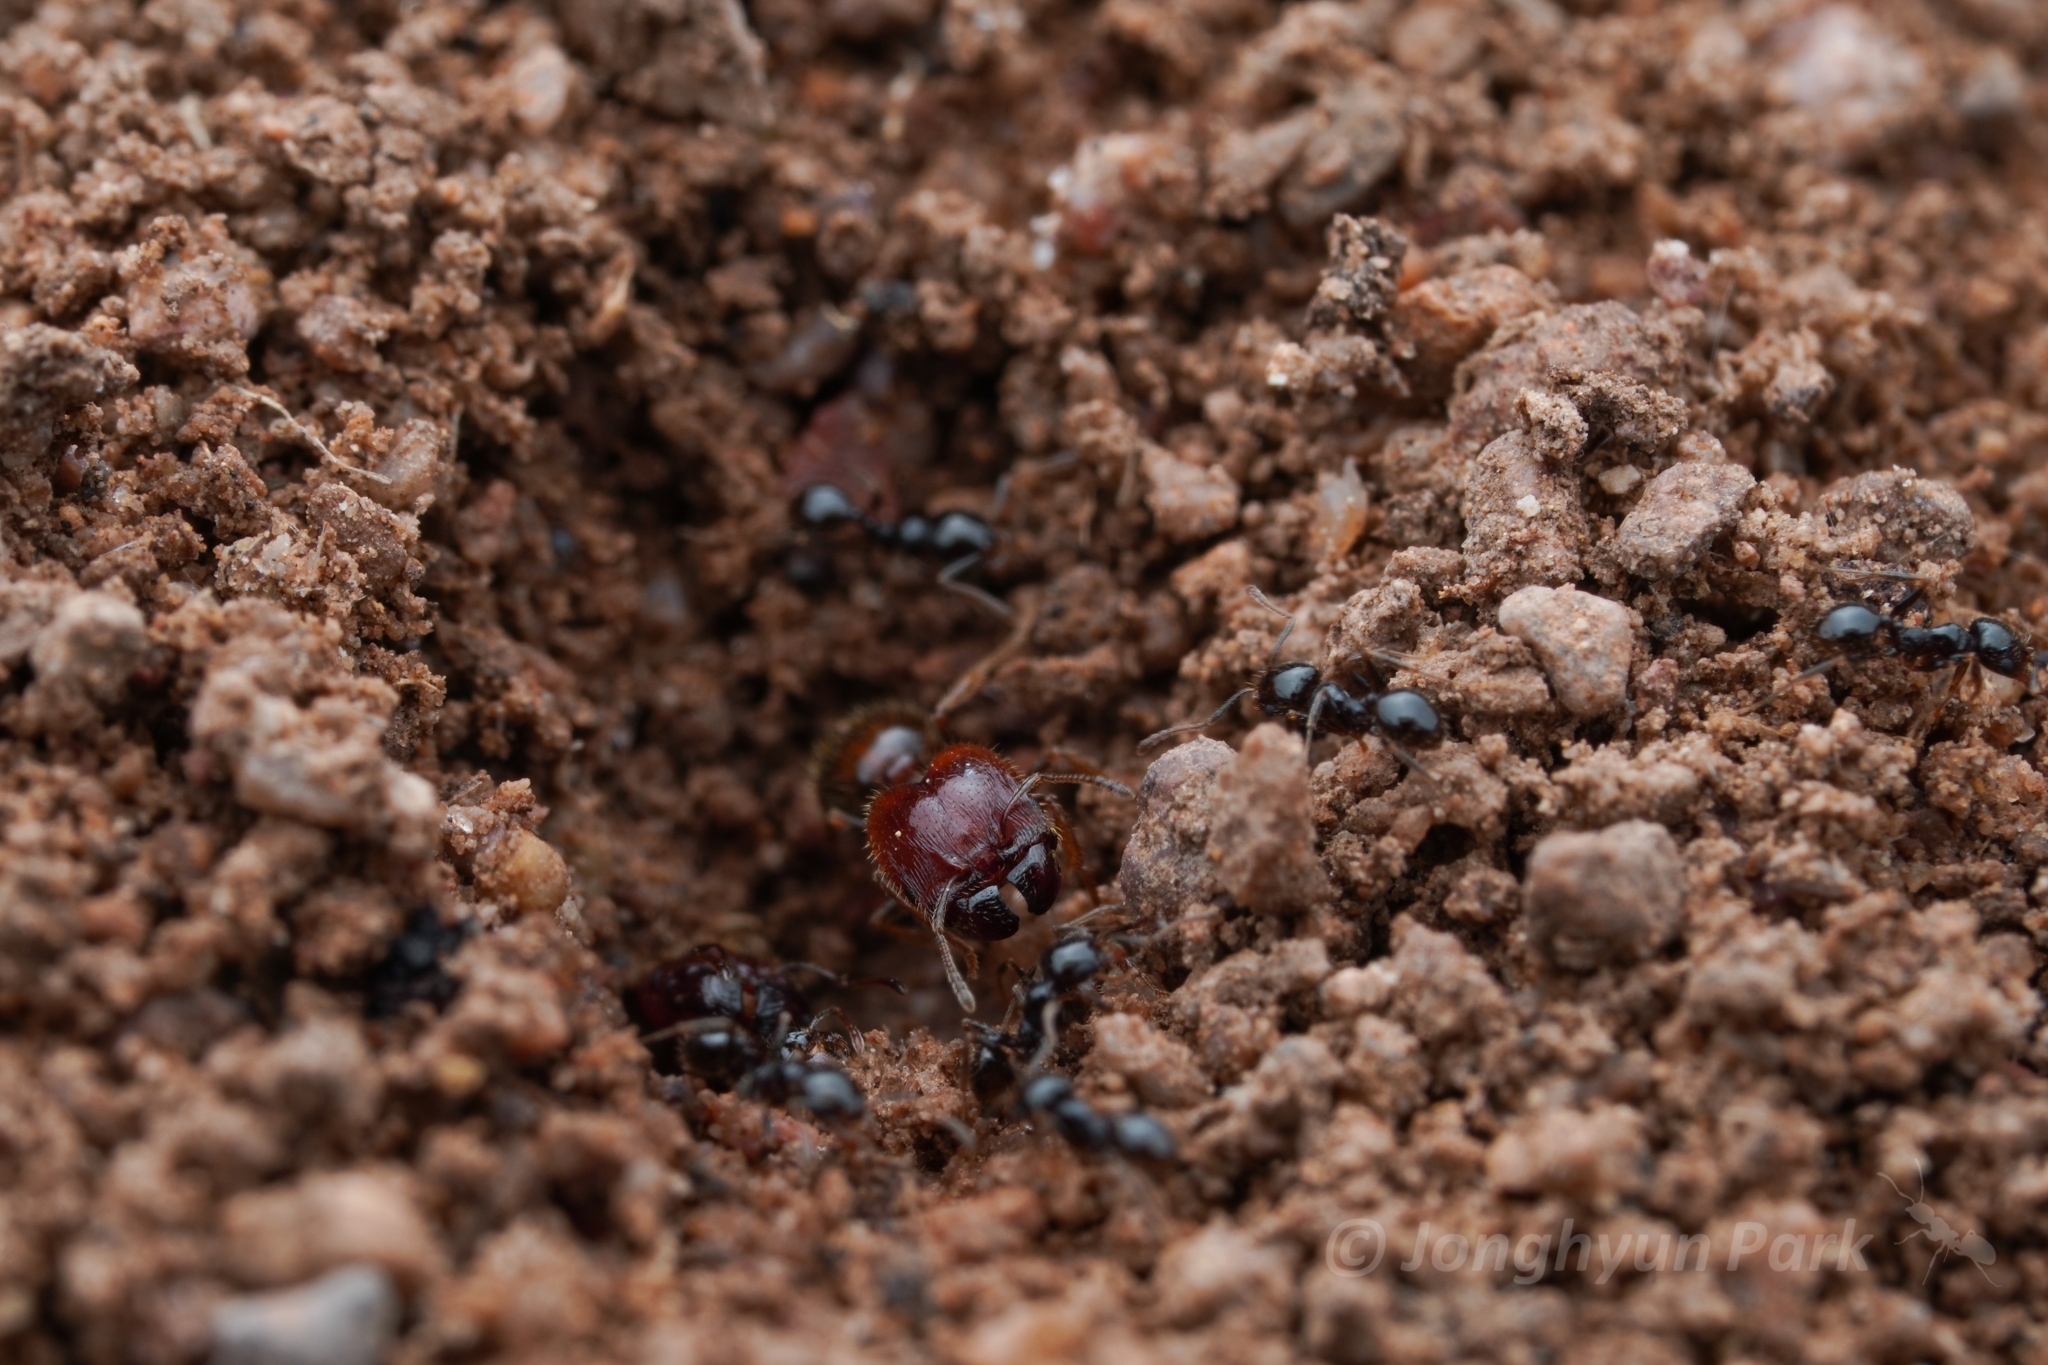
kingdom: Animalia
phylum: Arthropoda
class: Insecta
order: Hymenoptera
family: Formicidae
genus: Pheidole
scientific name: Pheidole xerophila
